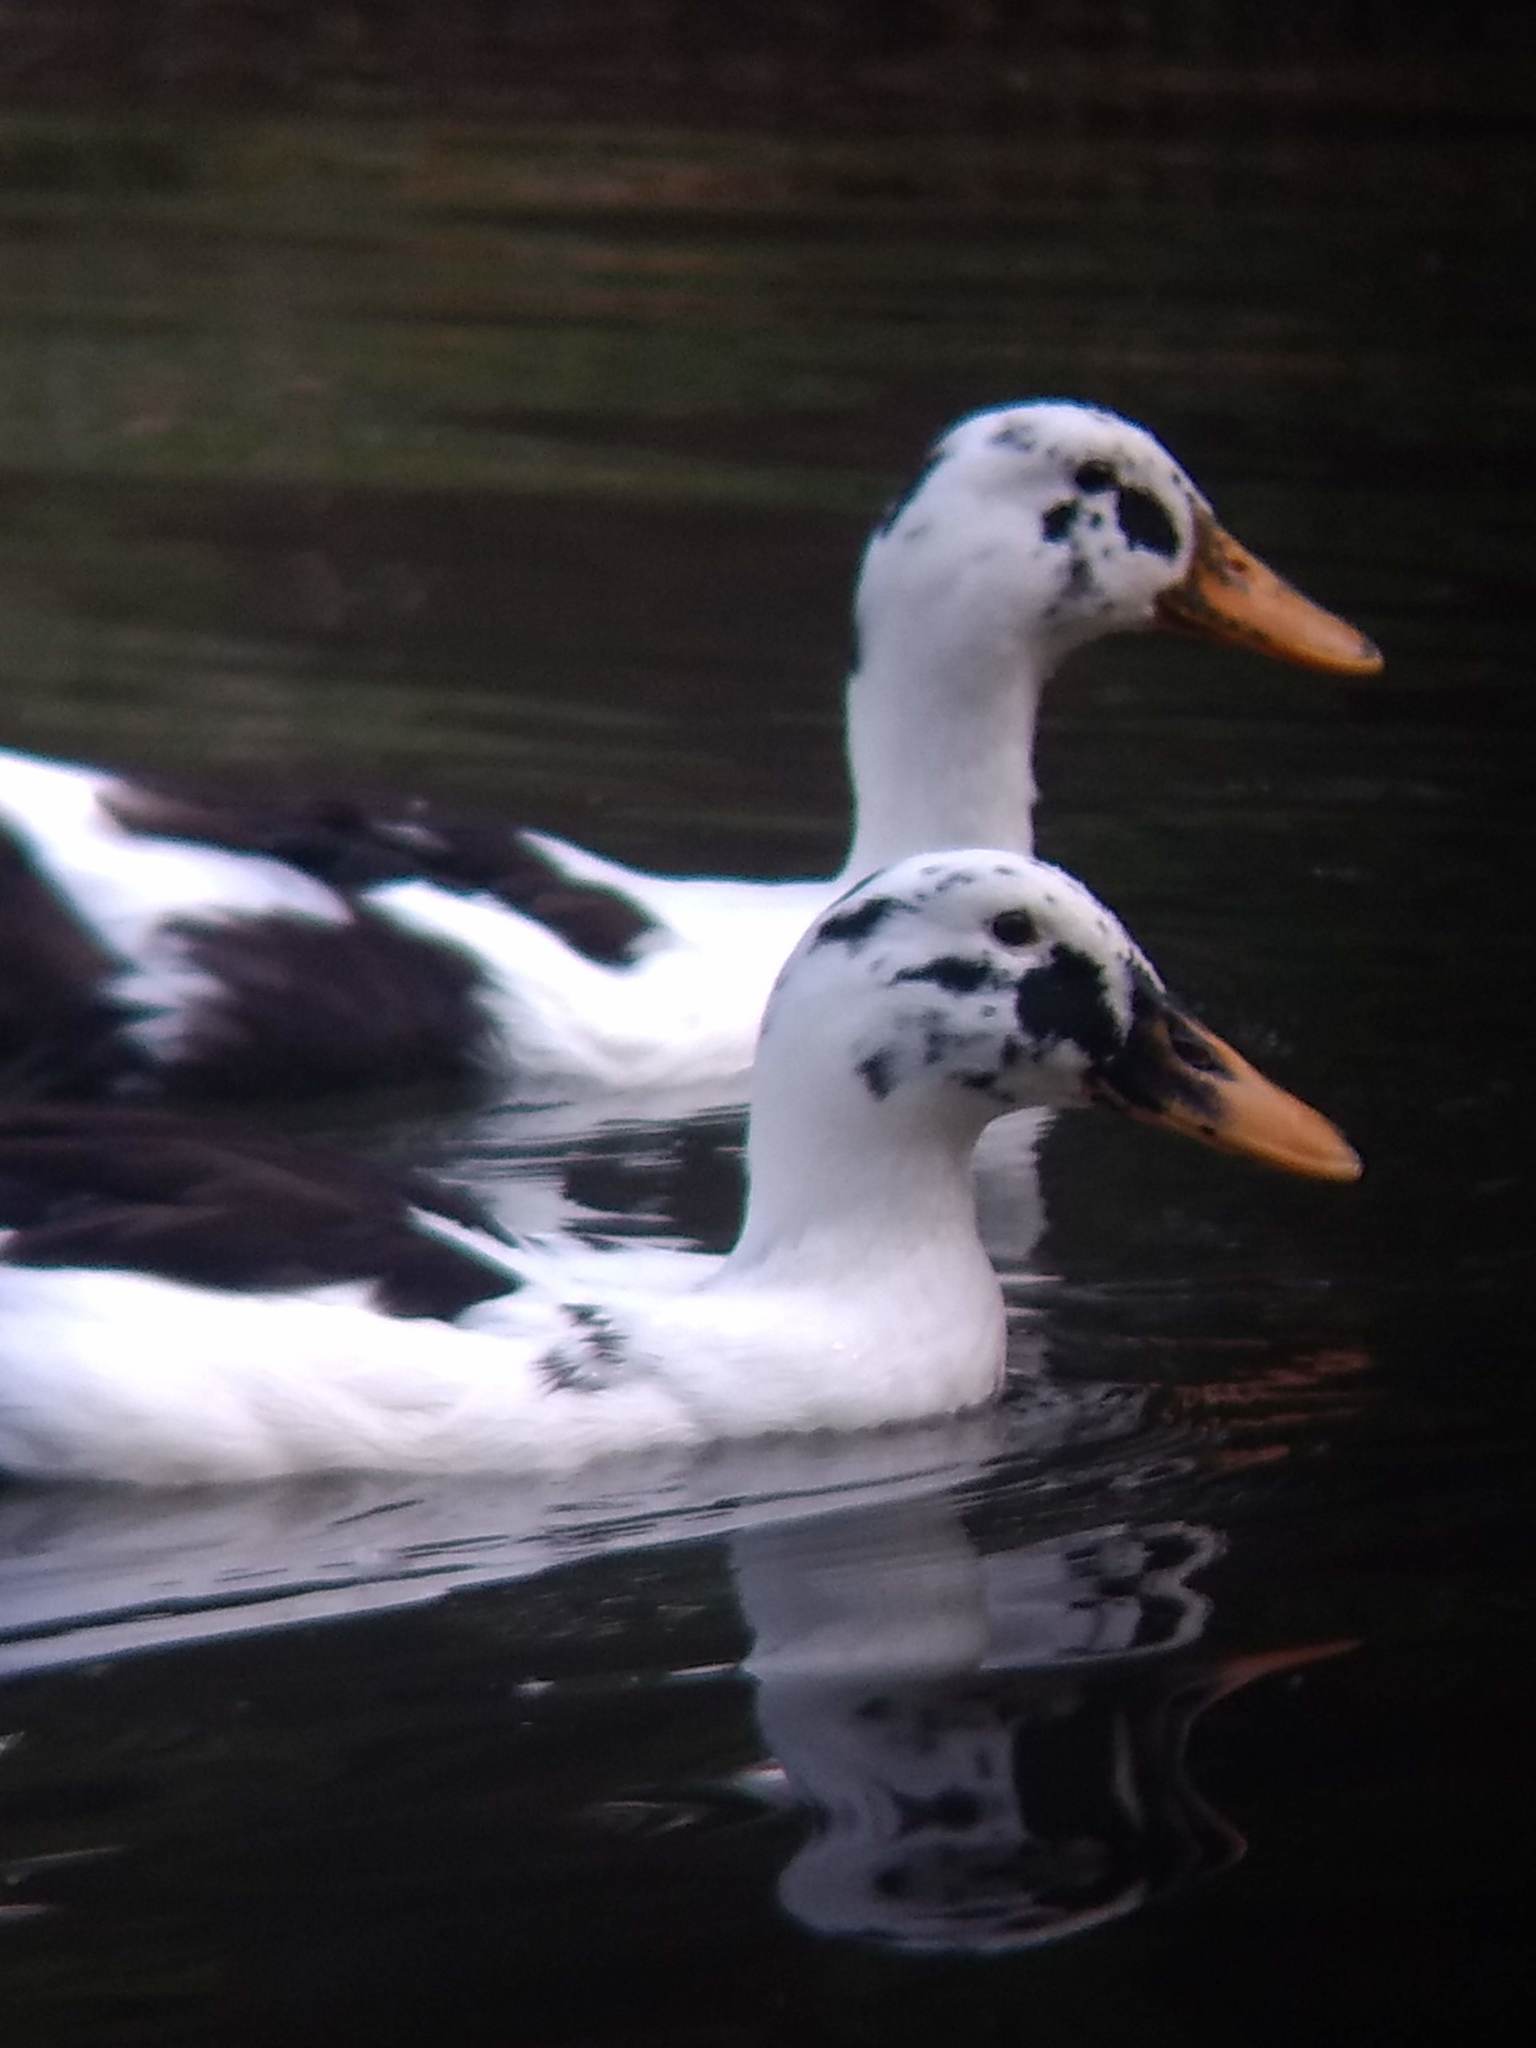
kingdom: Animalia
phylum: Chordata
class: Aves
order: Anseriformes
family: Anatidae
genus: Anas
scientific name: Anas platyrhynchos
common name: Mallard
